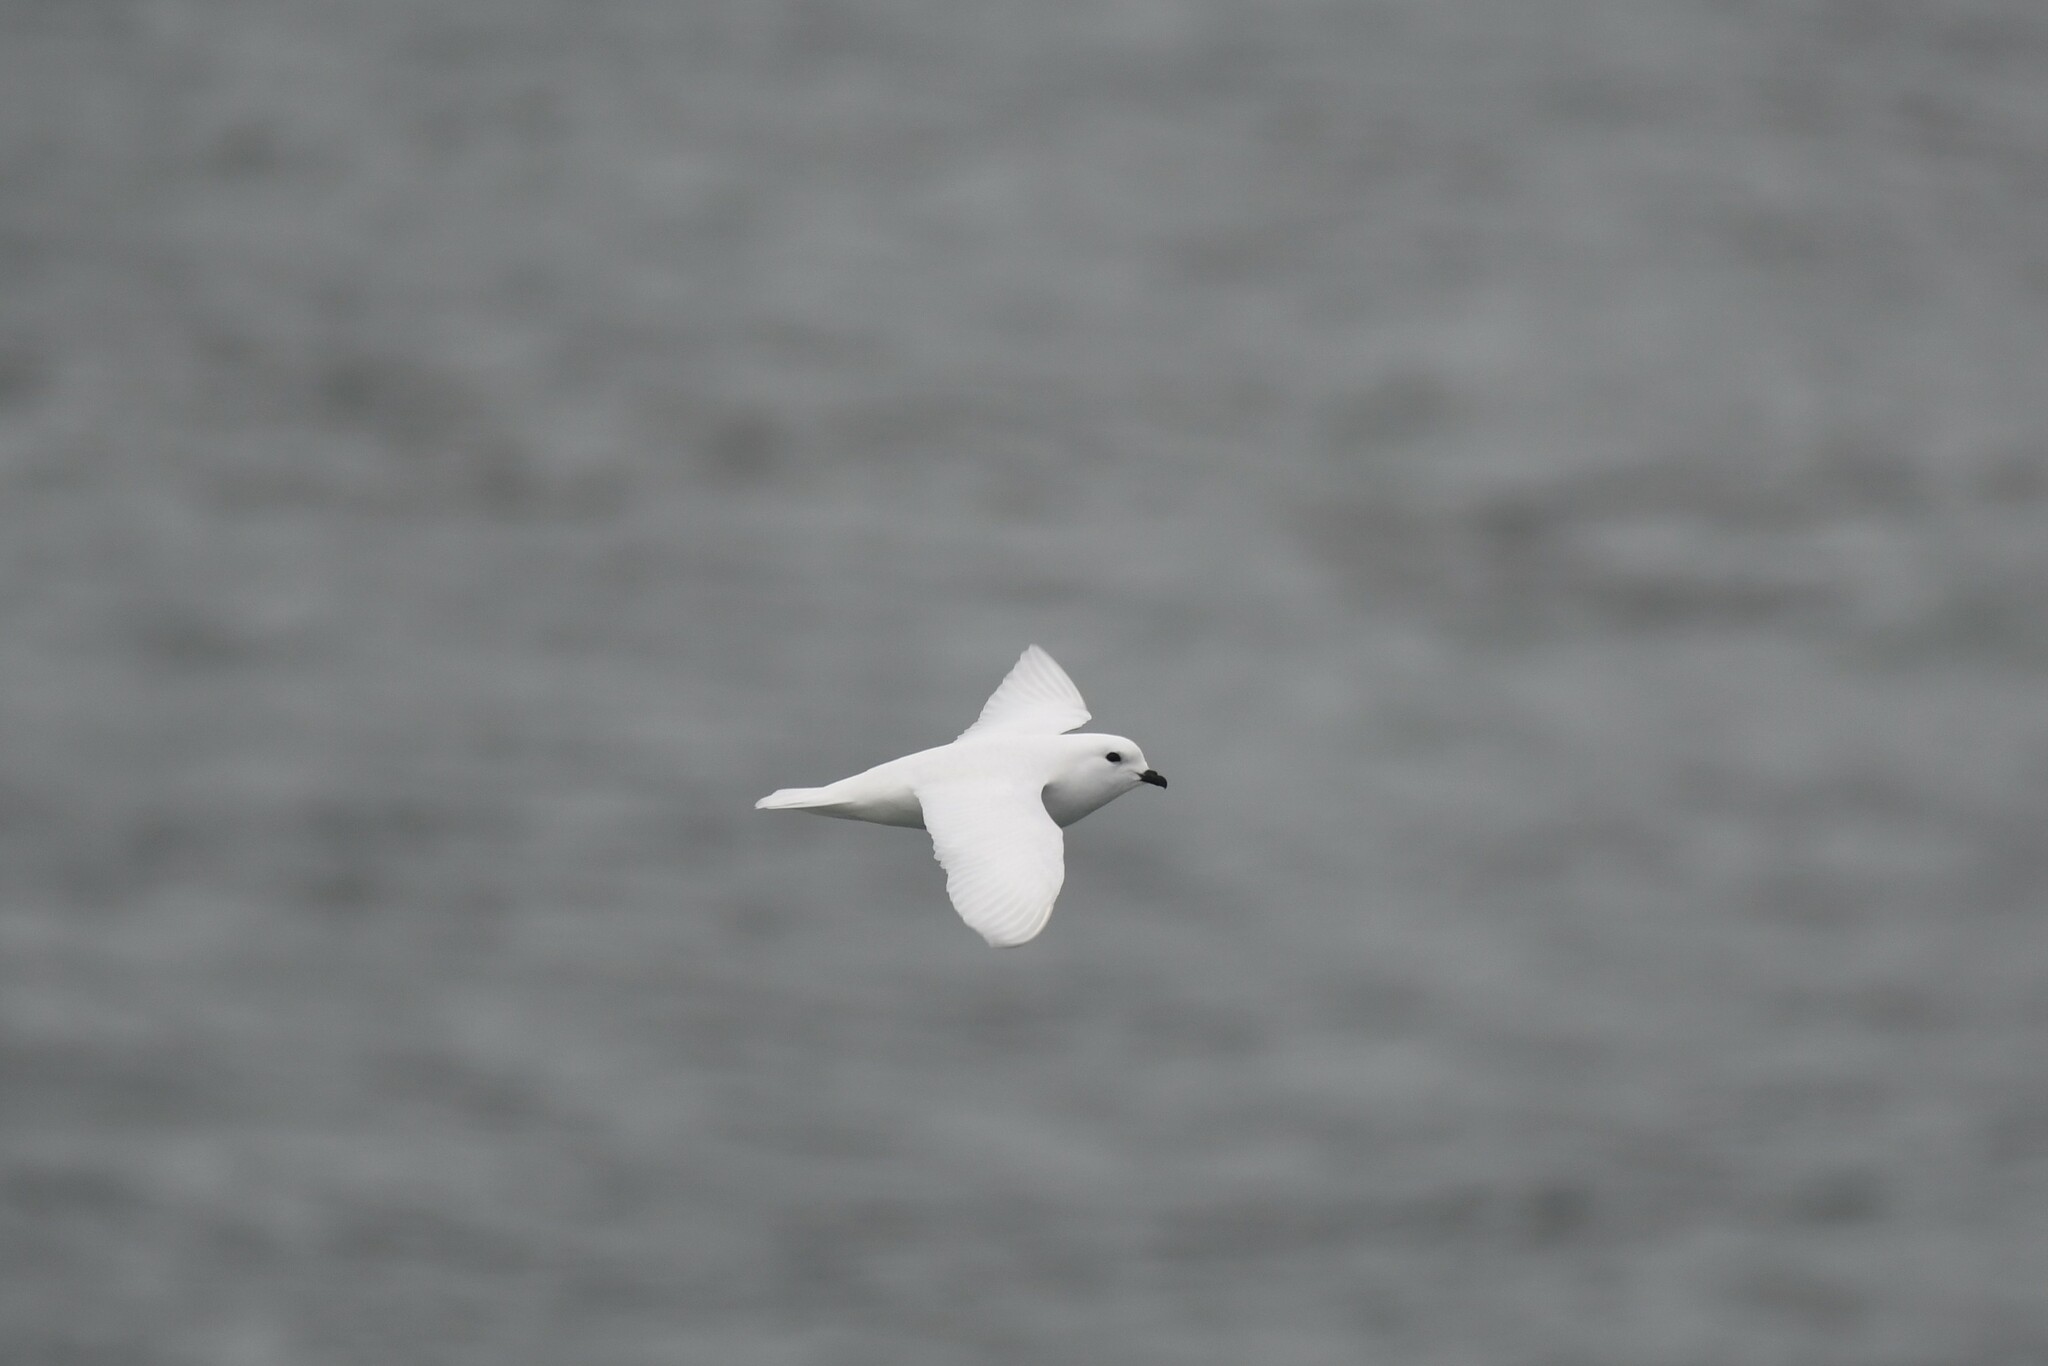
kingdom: Animalia
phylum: Chordata
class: Aves
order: Procellariiformes
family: Procellariidae
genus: Pagodroma
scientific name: Pagodroma nivea
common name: Snow petrel
